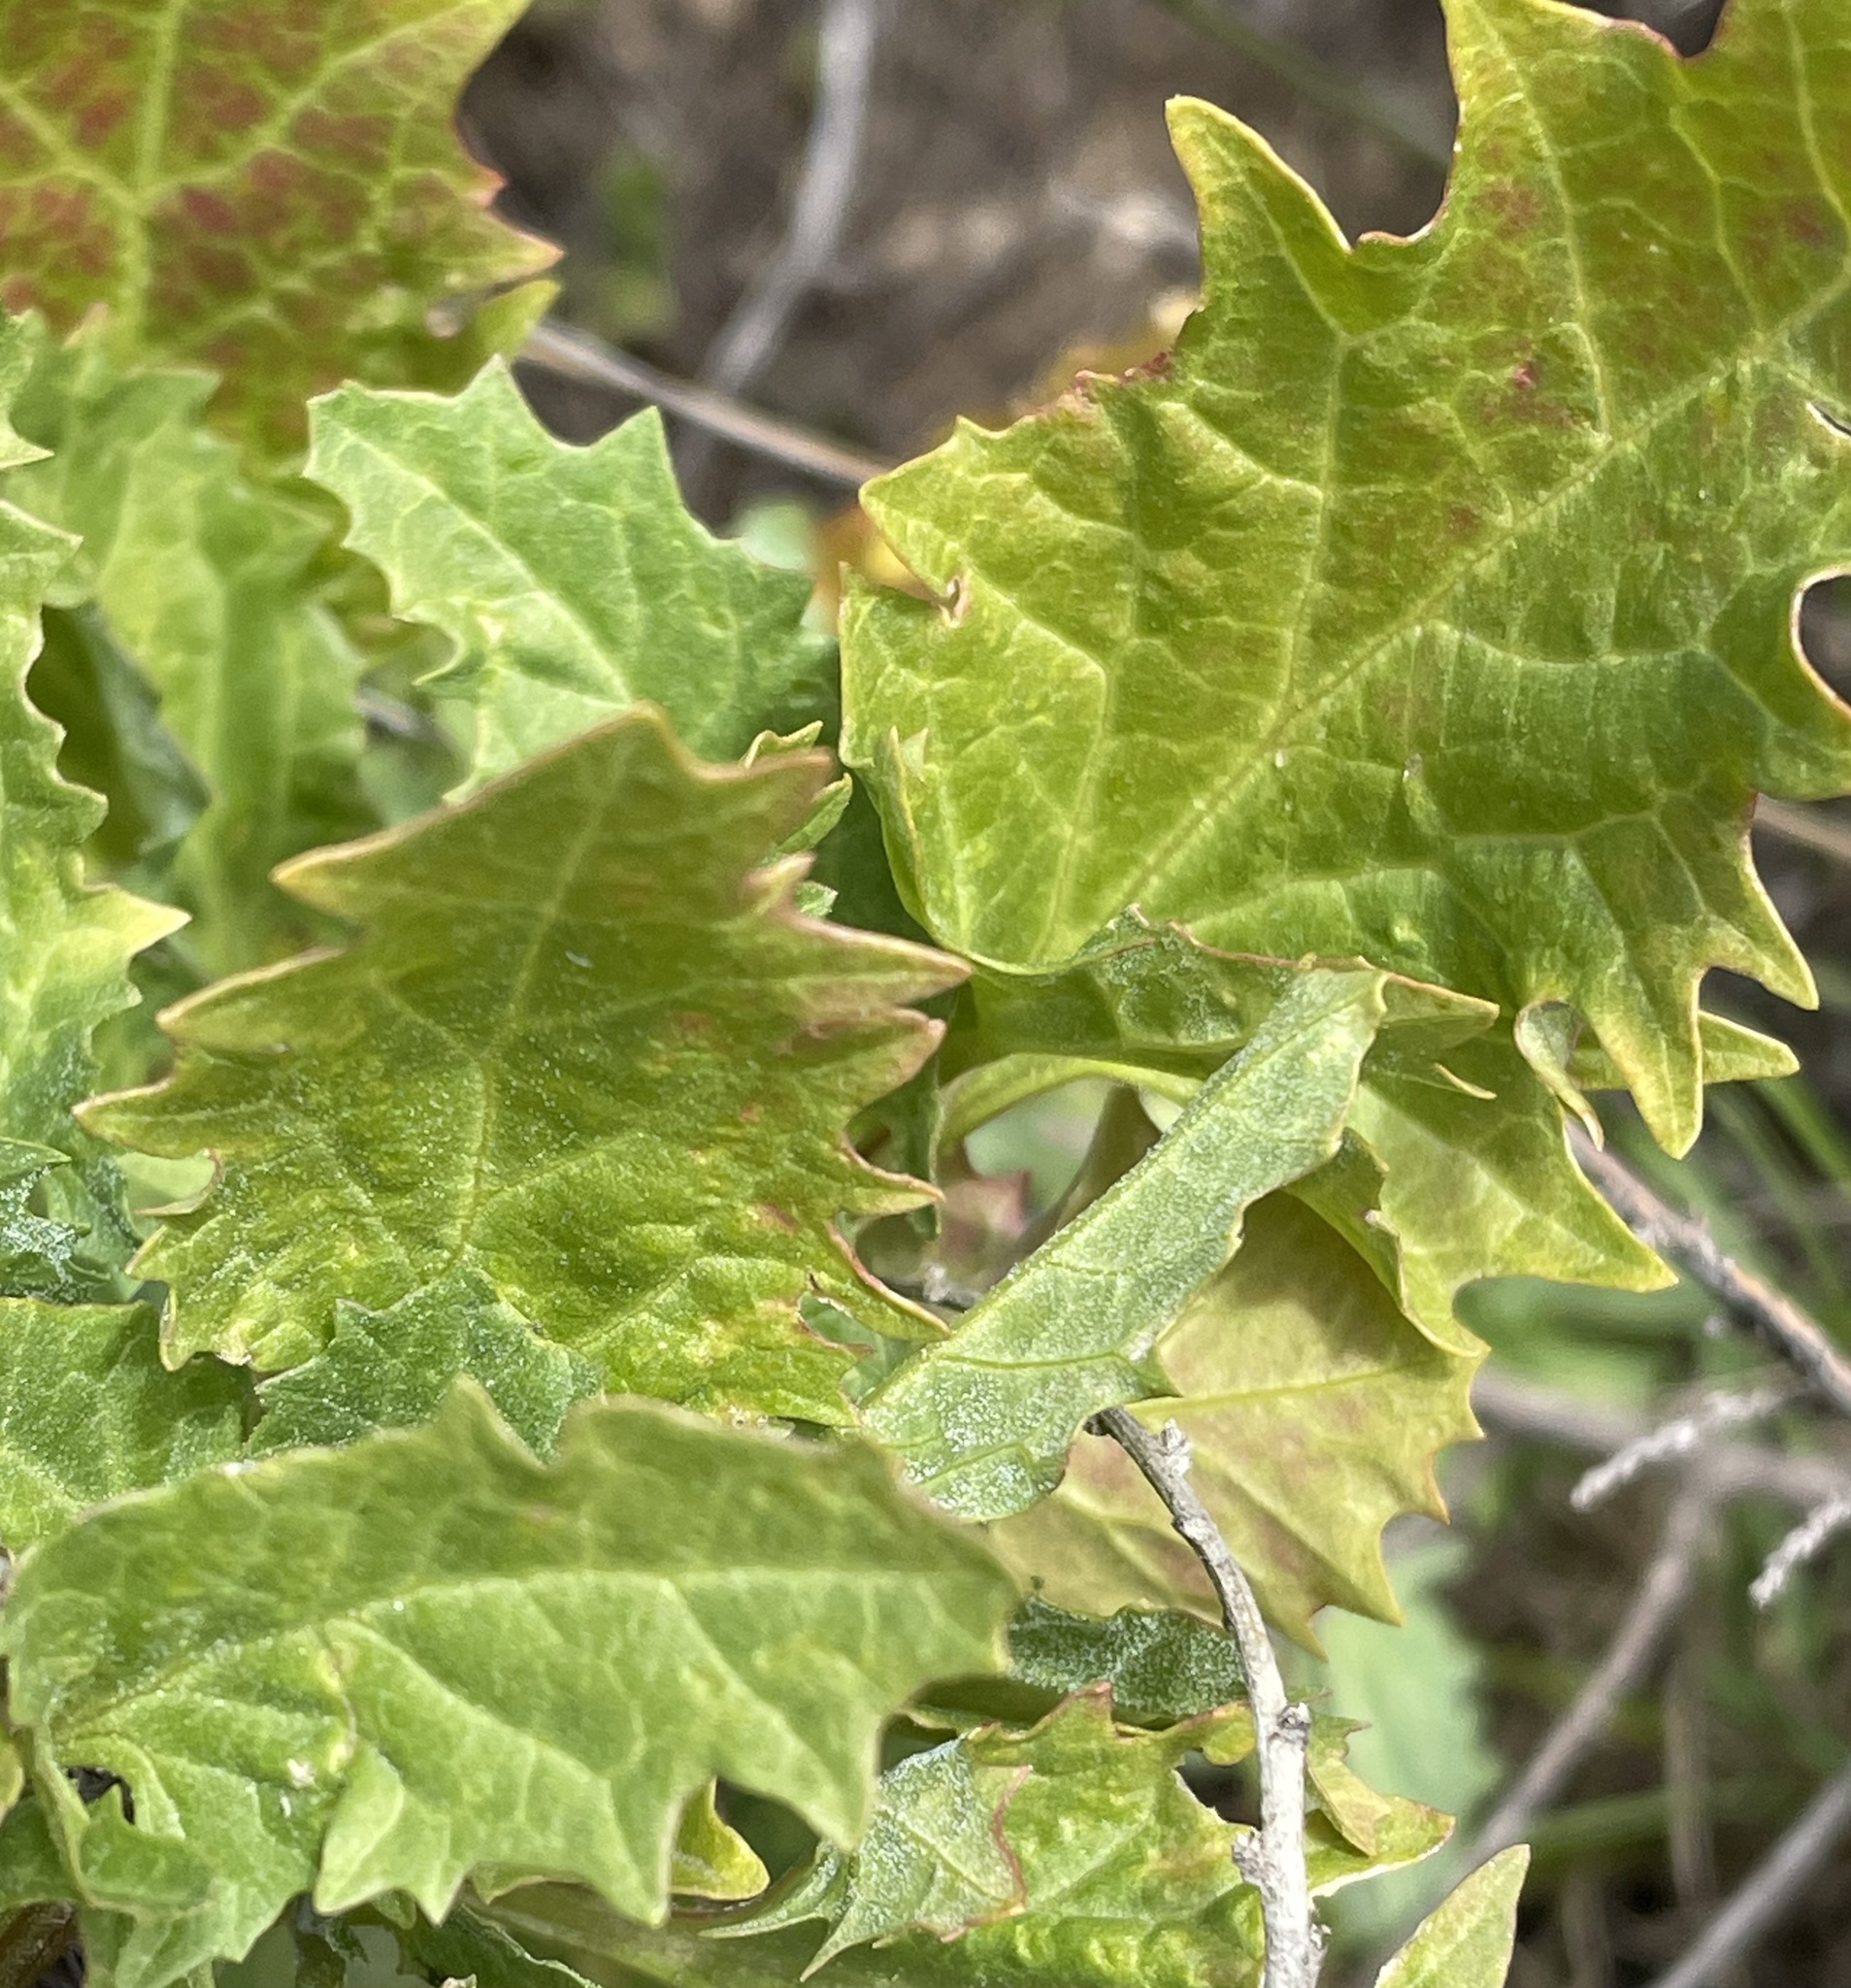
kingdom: Plantae
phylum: Tracheophyta
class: Magnoliopsida
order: Caryophyllales
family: Amaranthaceae
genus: Blitum
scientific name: Blitum californicum
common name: California goosefoot
